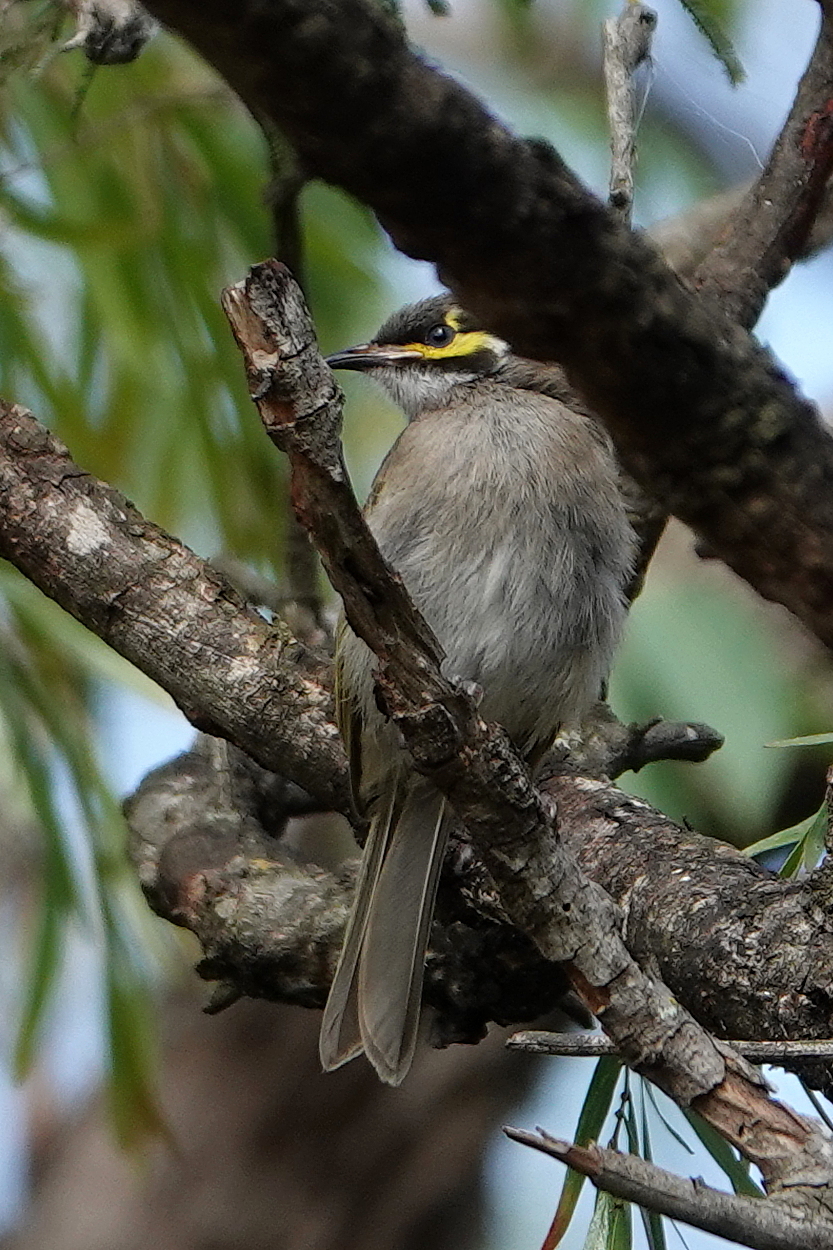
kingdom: Animalia
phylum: Chordata
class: Aves
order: Passeriformes
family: Meliphagidae
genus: Caligavis
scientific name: Caligavis chrysops
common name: Yellow-faced honeyeater
